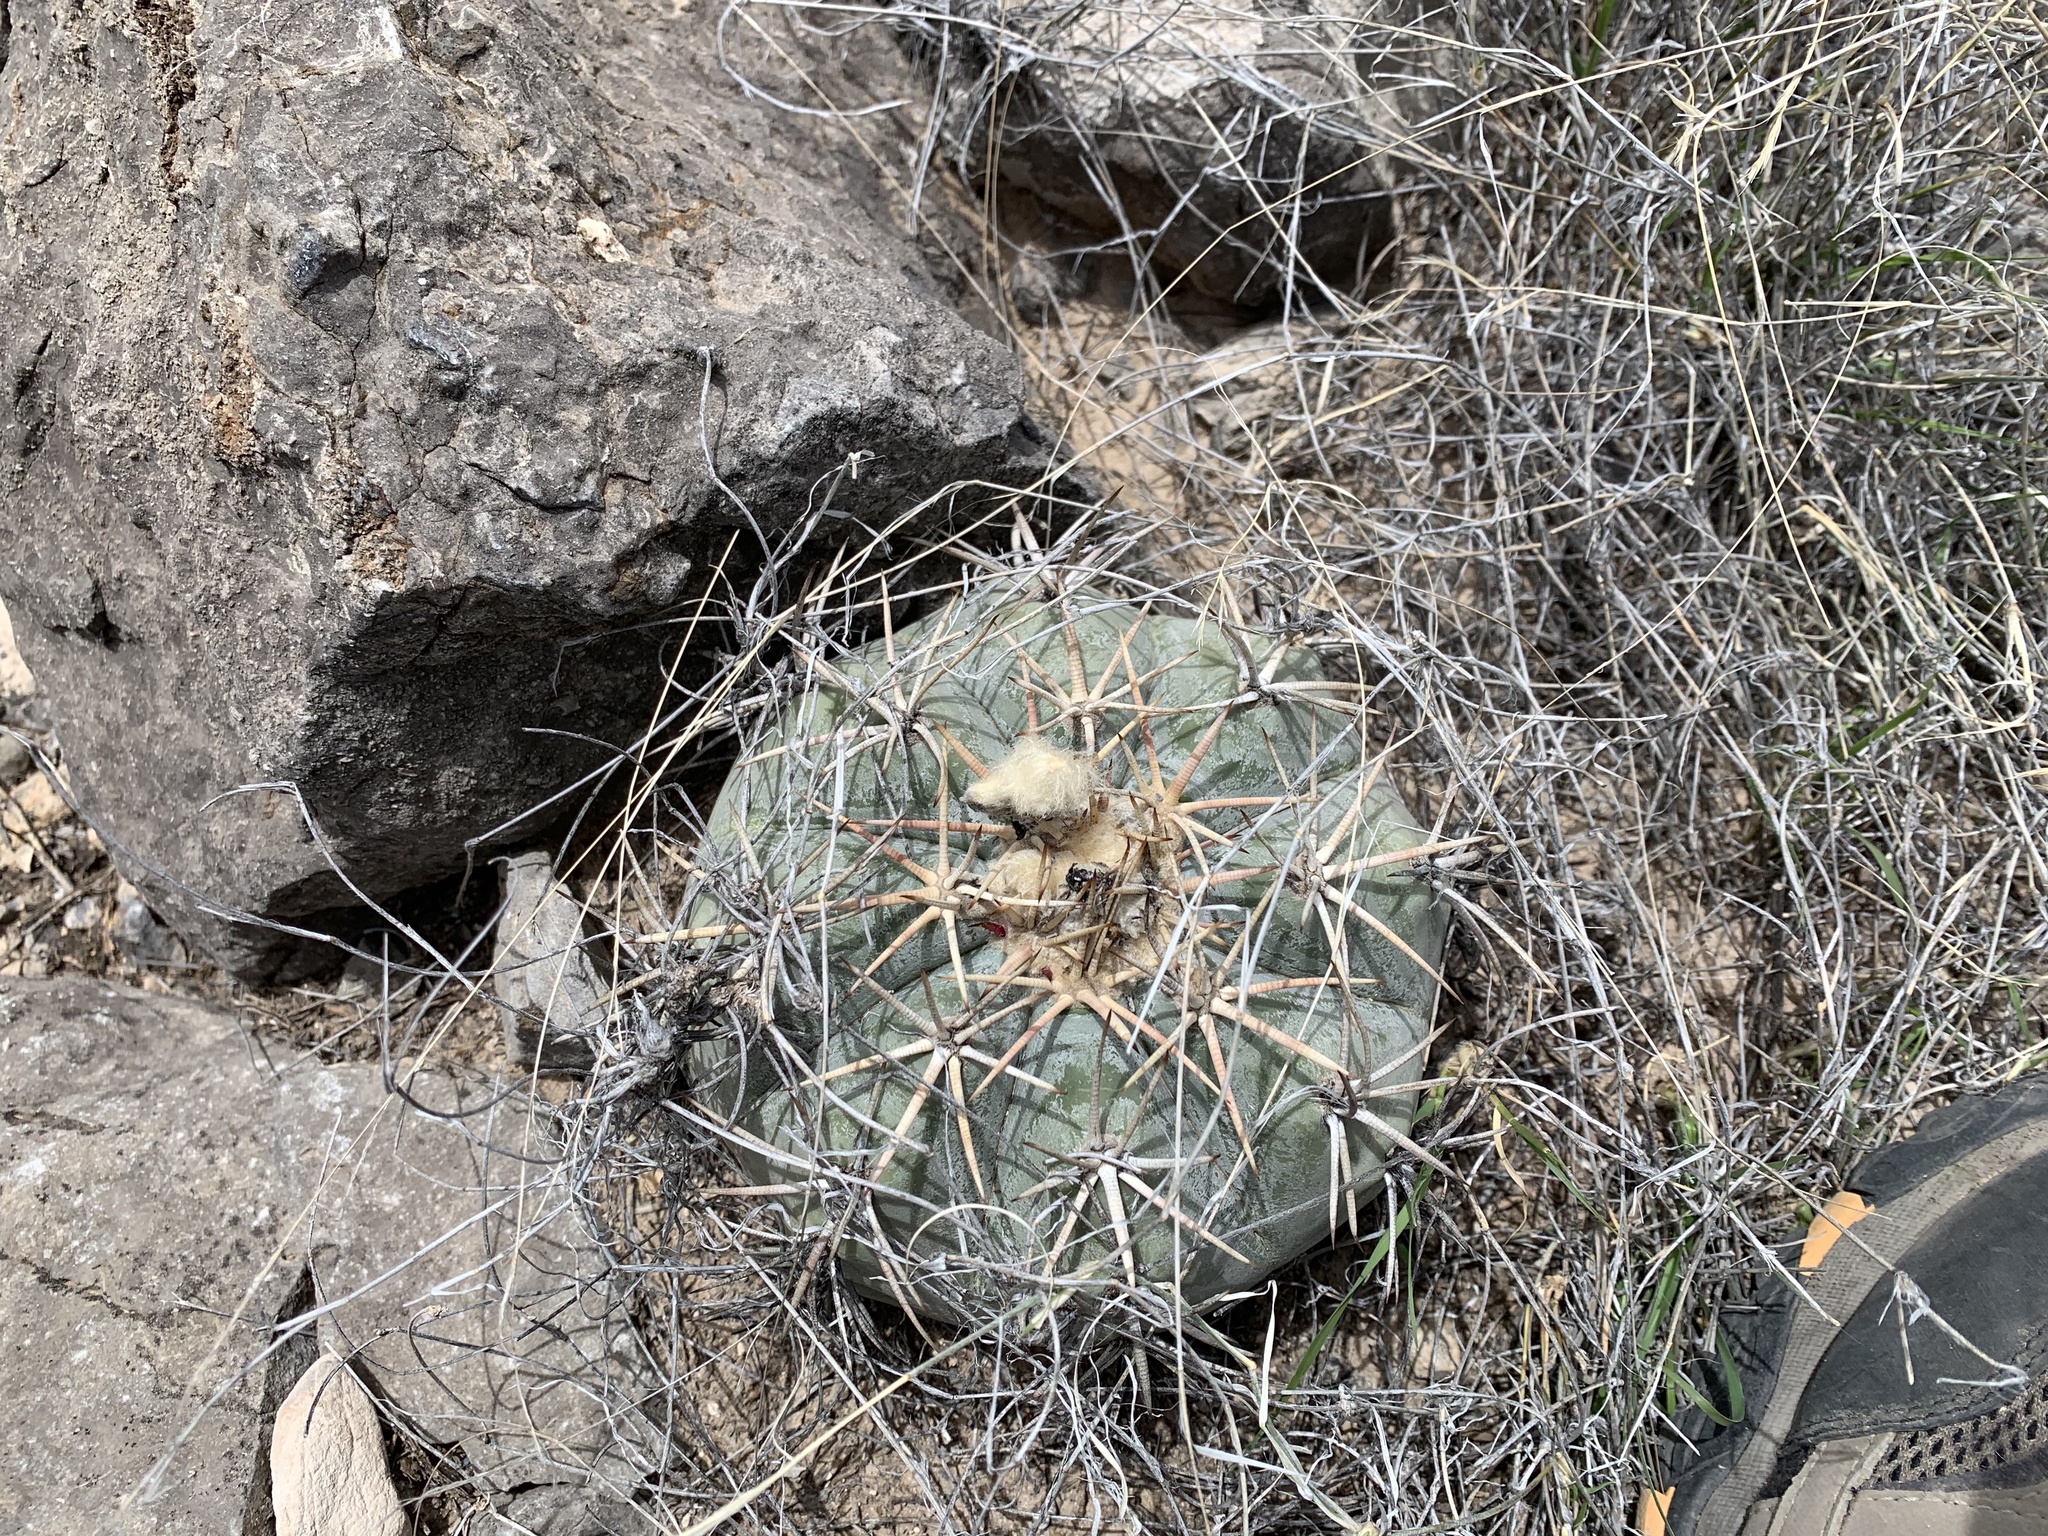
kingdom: Plantae
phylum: Tracheophyta
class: Magnoliopsida
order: Caryophyllales
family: Cactaceae
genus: Echinocactus
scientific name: Echinocactus horizonthalonius
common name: Devilshead
